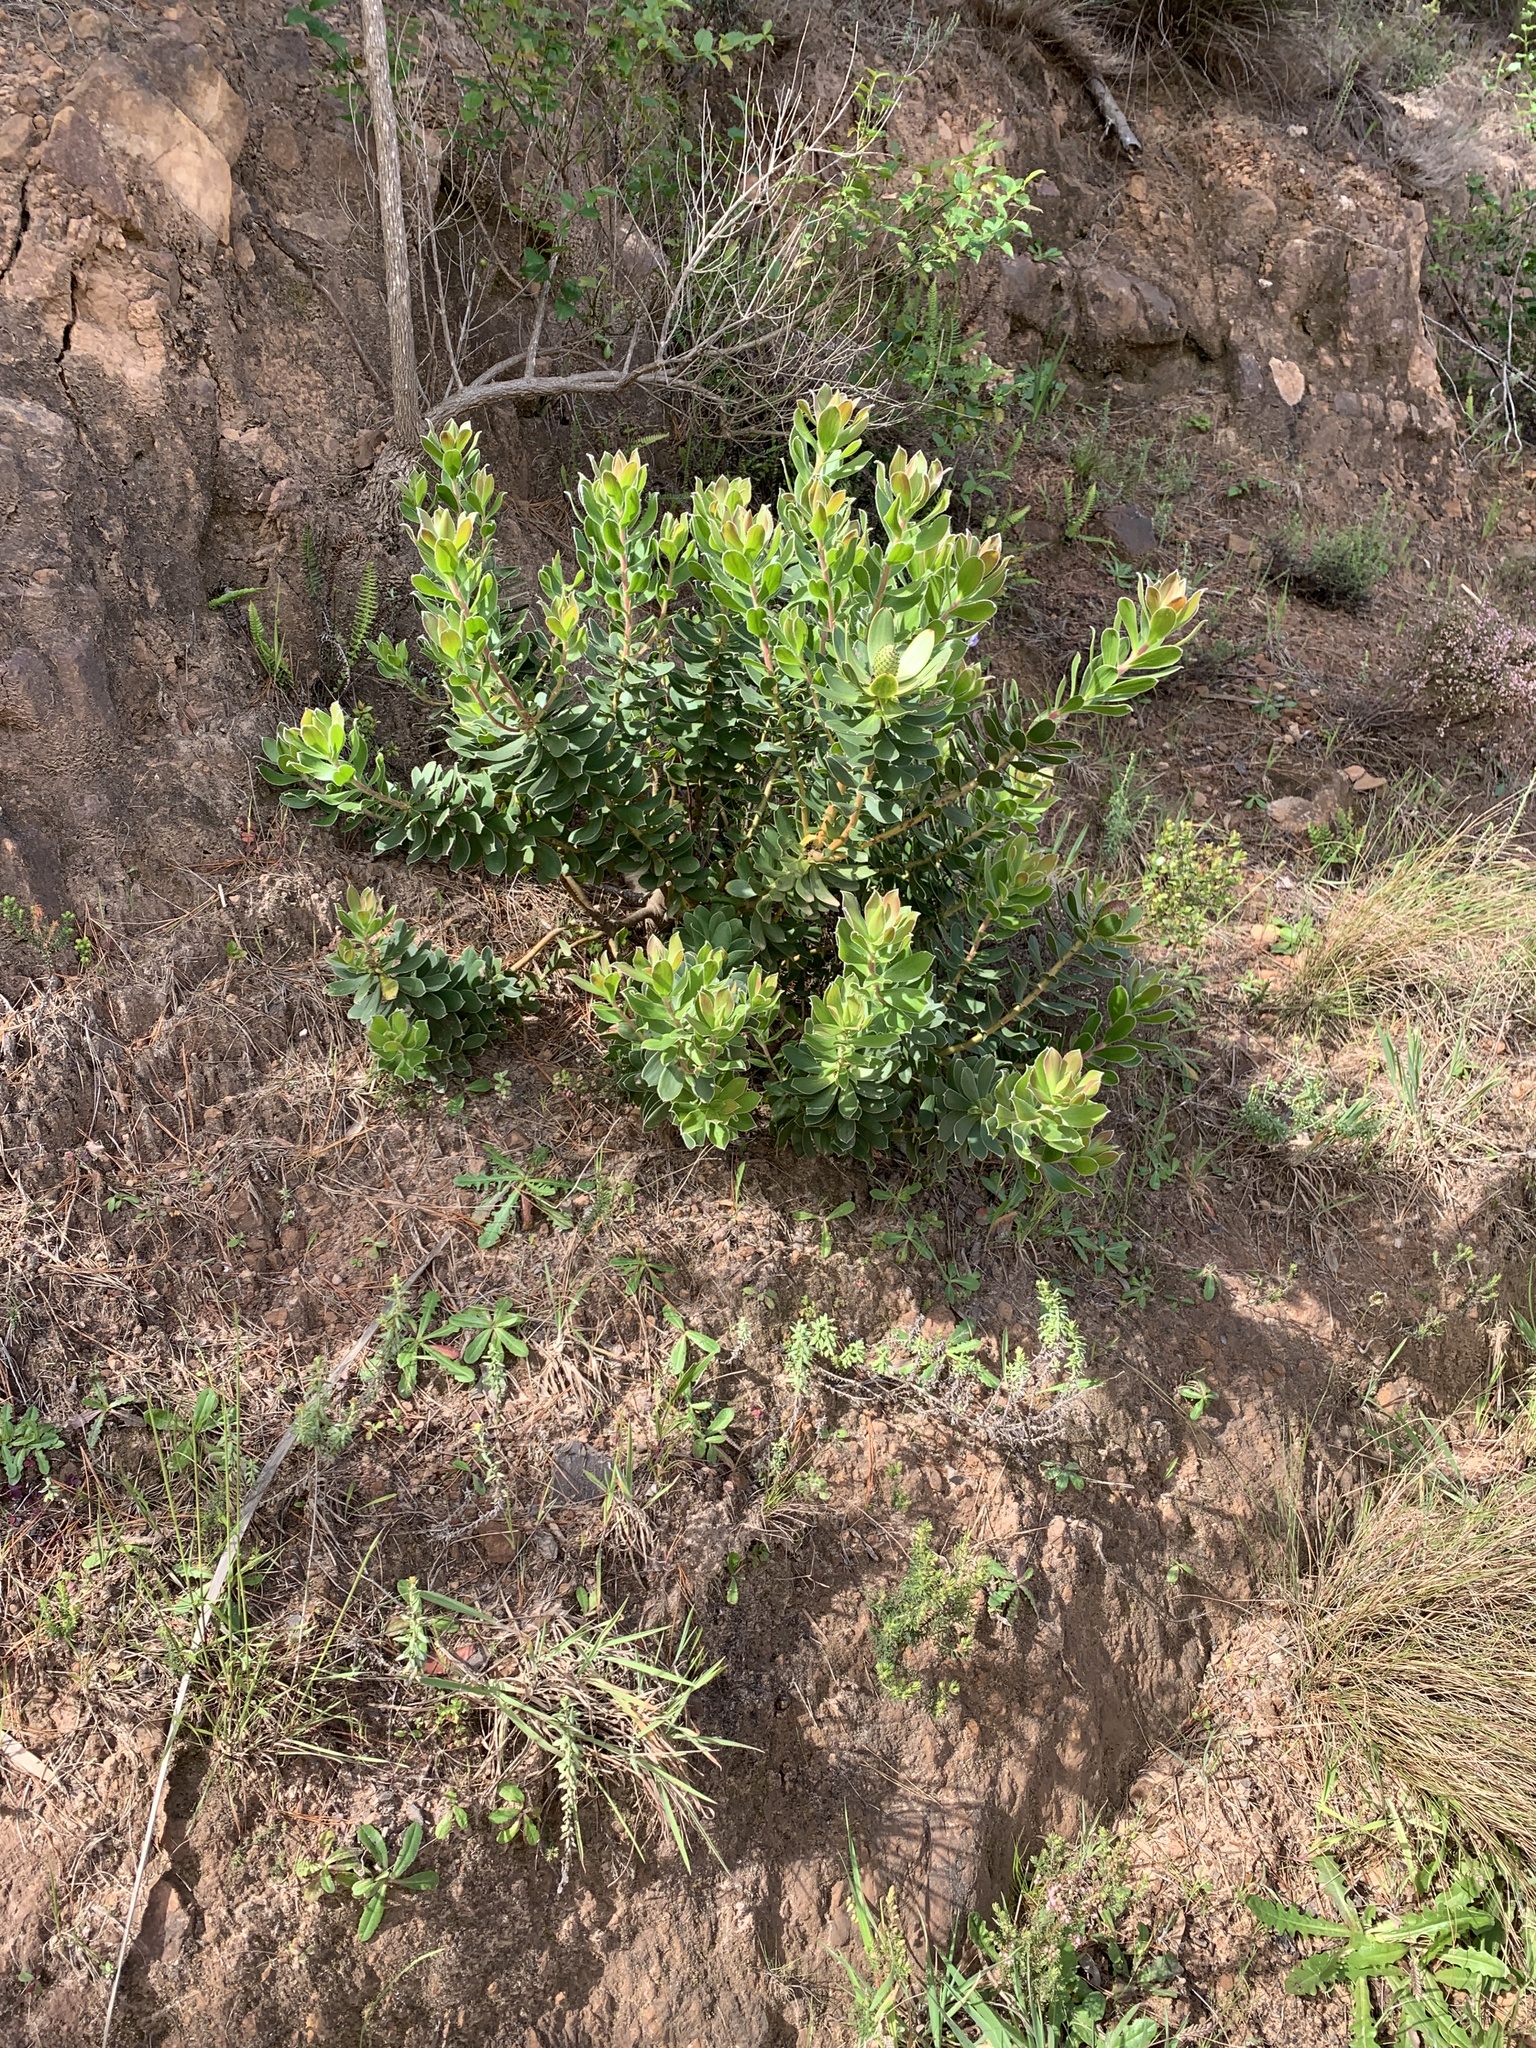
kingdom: Plantae
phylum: Tracheophyta
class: Magnoliopsida
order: Proteales
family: Proteaceae
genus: Leucadendron
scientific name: Leucadendron strobilinum
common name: Mountain rose
